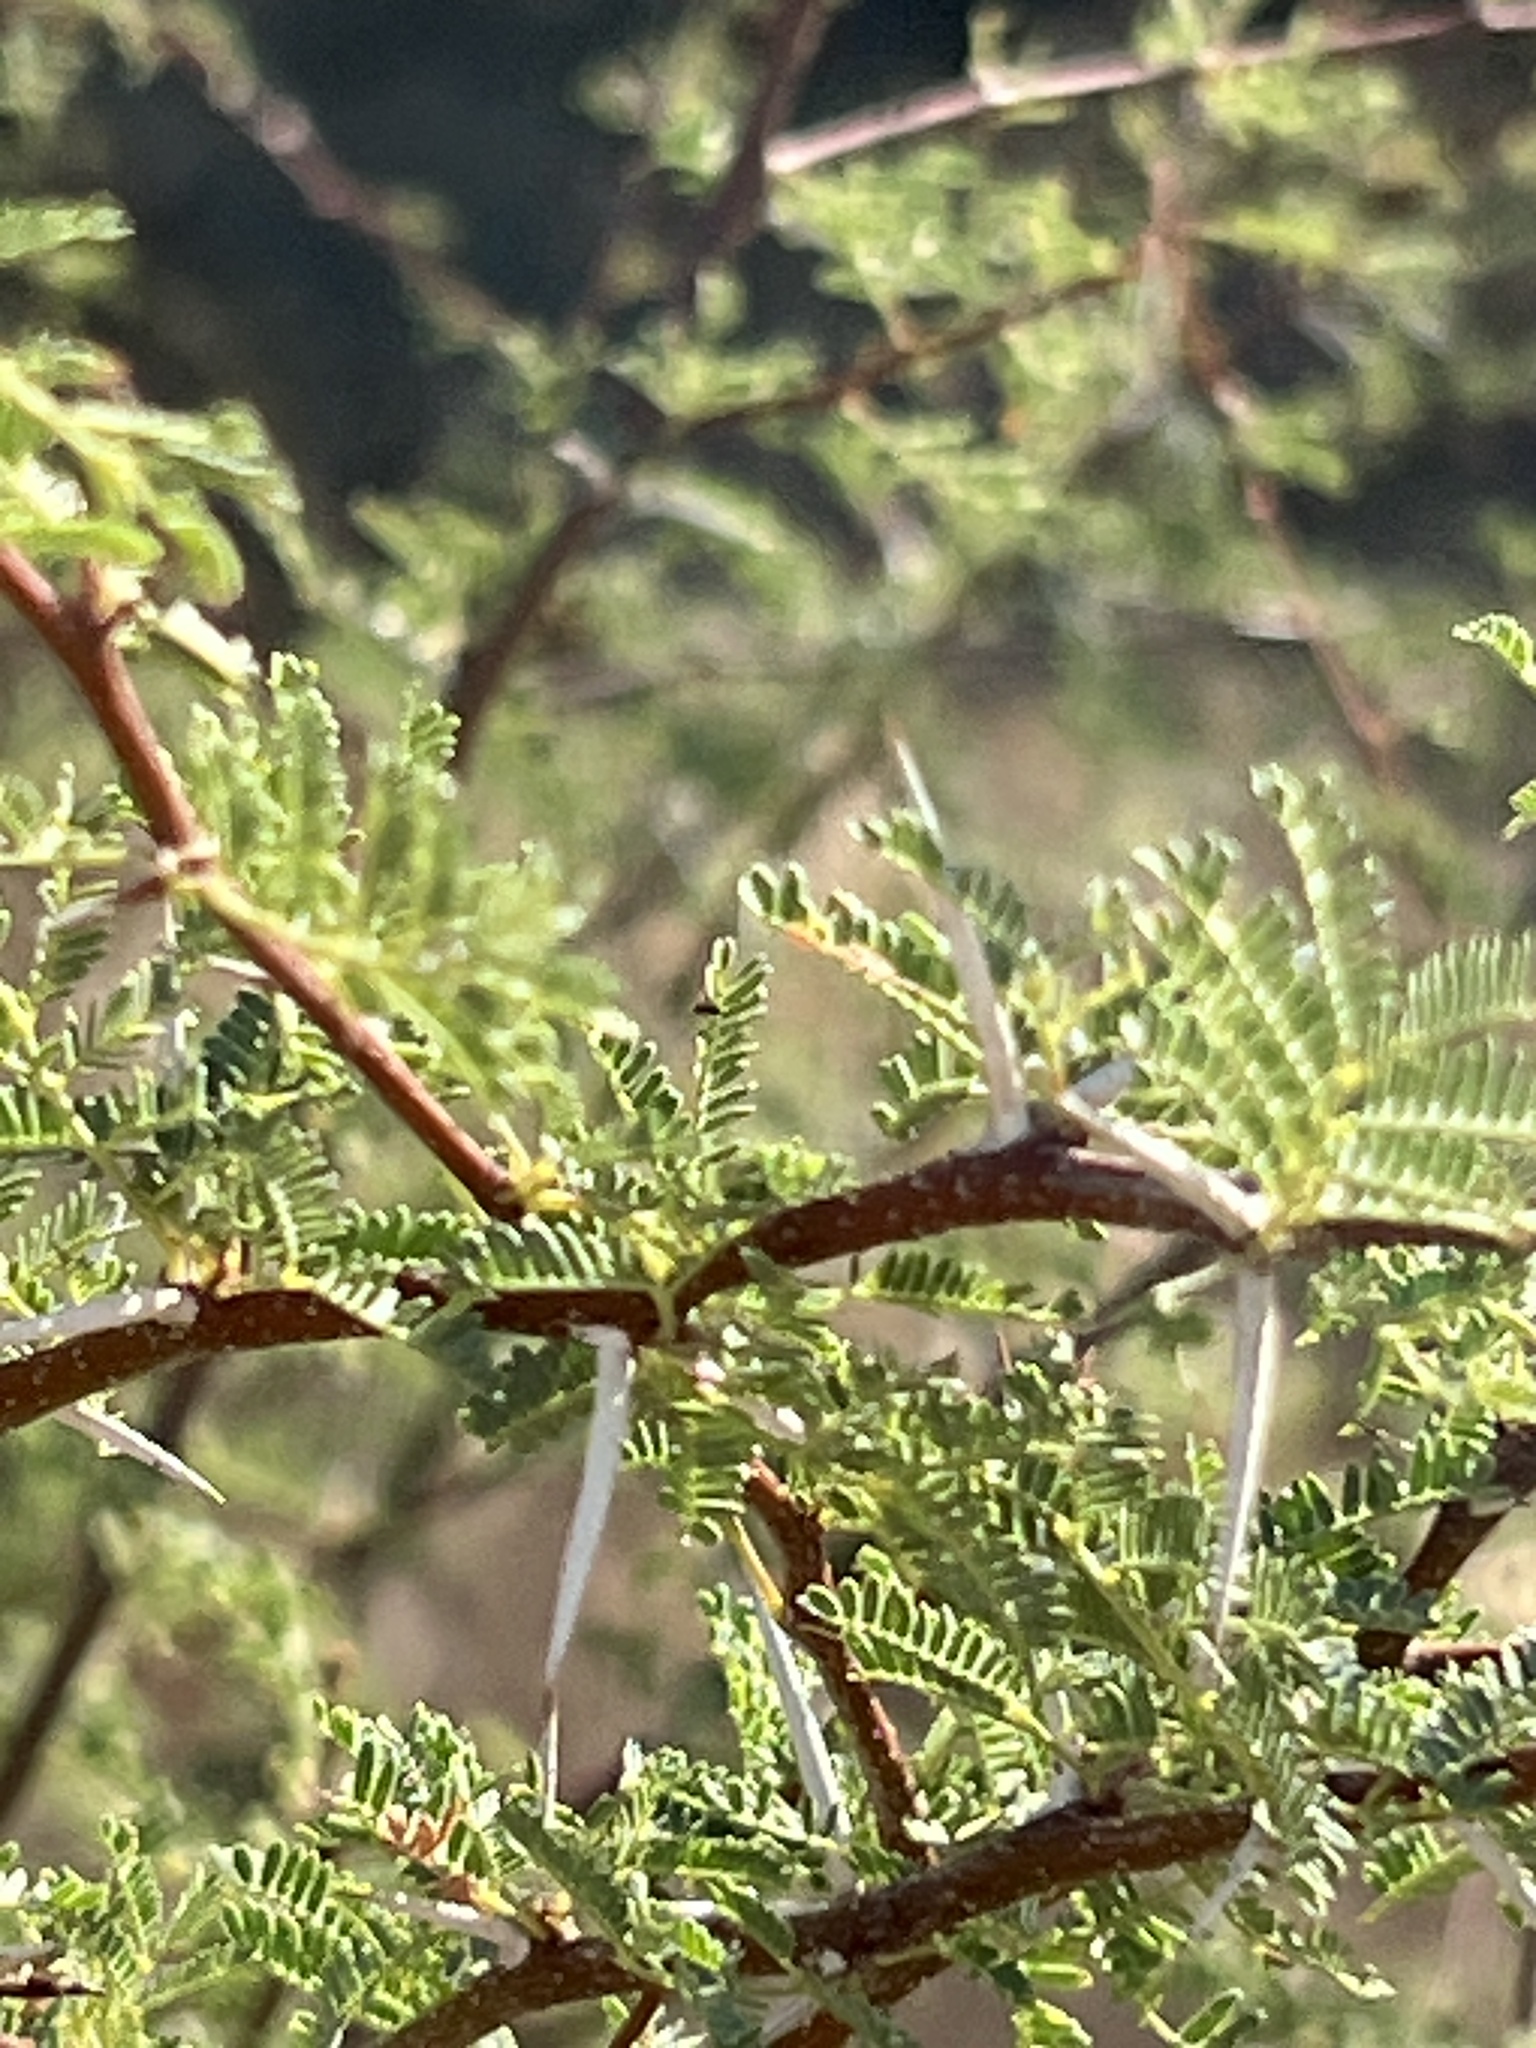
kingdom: Plantae
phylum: Tracheophyta
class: Magnoliopsida
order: Fabales
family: Fabaceae
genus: Vachellia
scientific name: Vachellia farnesiana
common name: Sweet acacia
